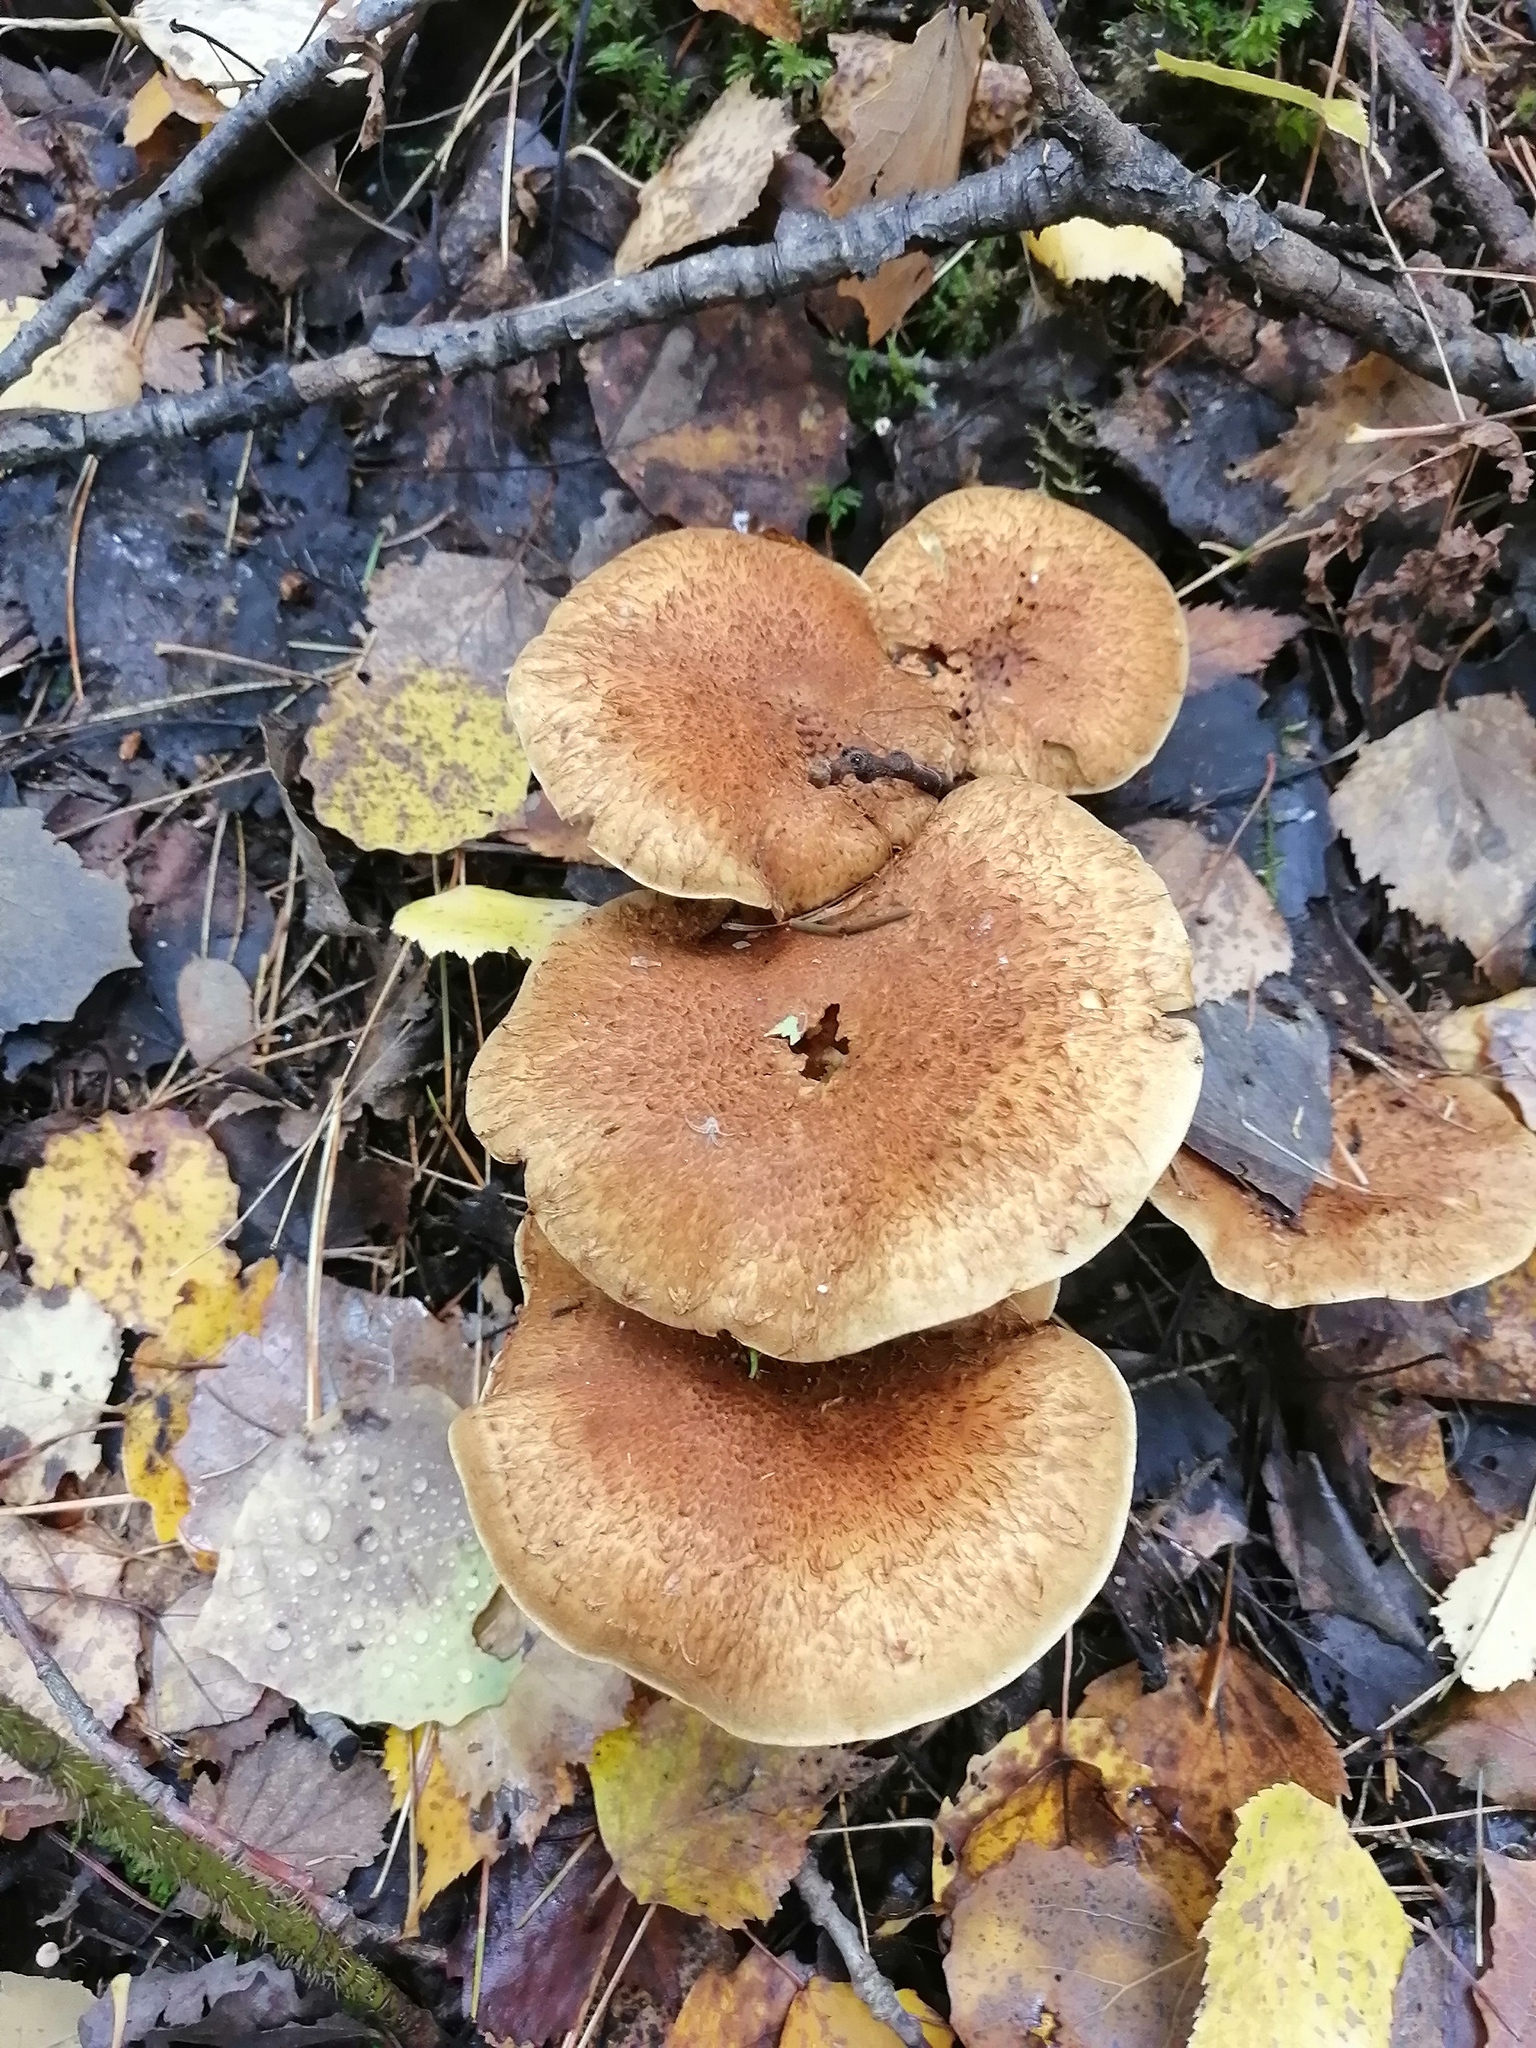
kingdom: Fungi
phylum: Basidiomycota
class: Agaricomycetes
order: Agaricales
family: Strophariaceae
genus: Pholiota
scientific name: Pholiota squarrosa
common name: Shaggy pholiota
